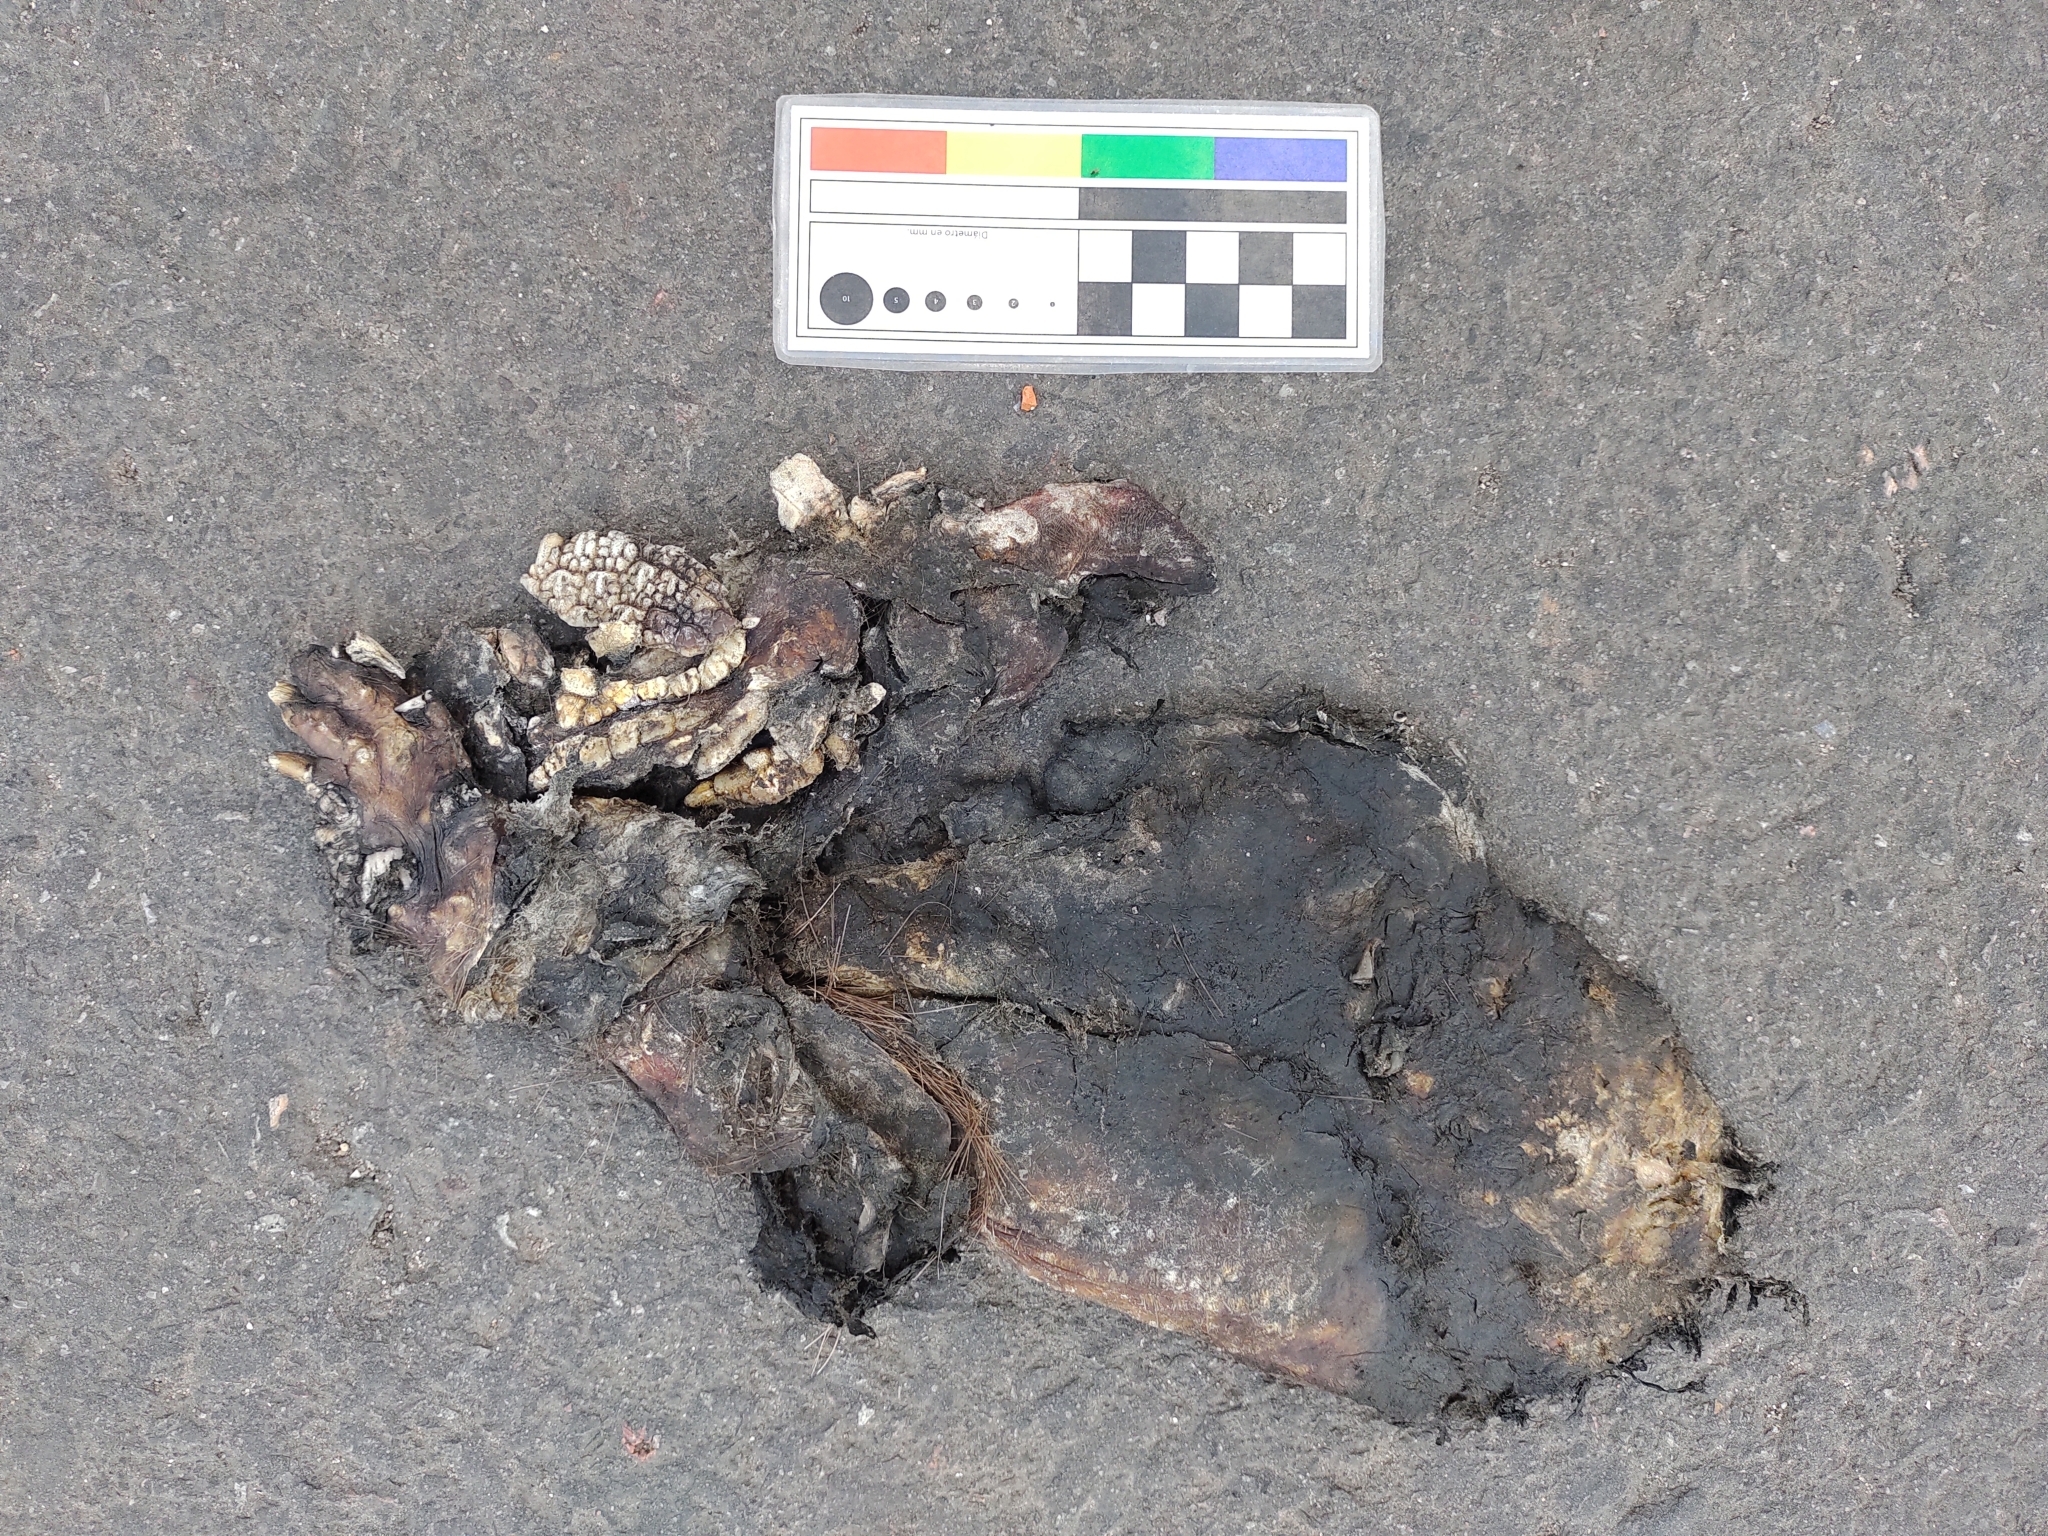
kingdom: Animalia
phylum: Chordata
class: Mammalia
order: Cingulata
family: Dasypodidae
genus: Chaetophractus
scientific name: Chaetophractus villosus
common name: Big hairy armadillo
